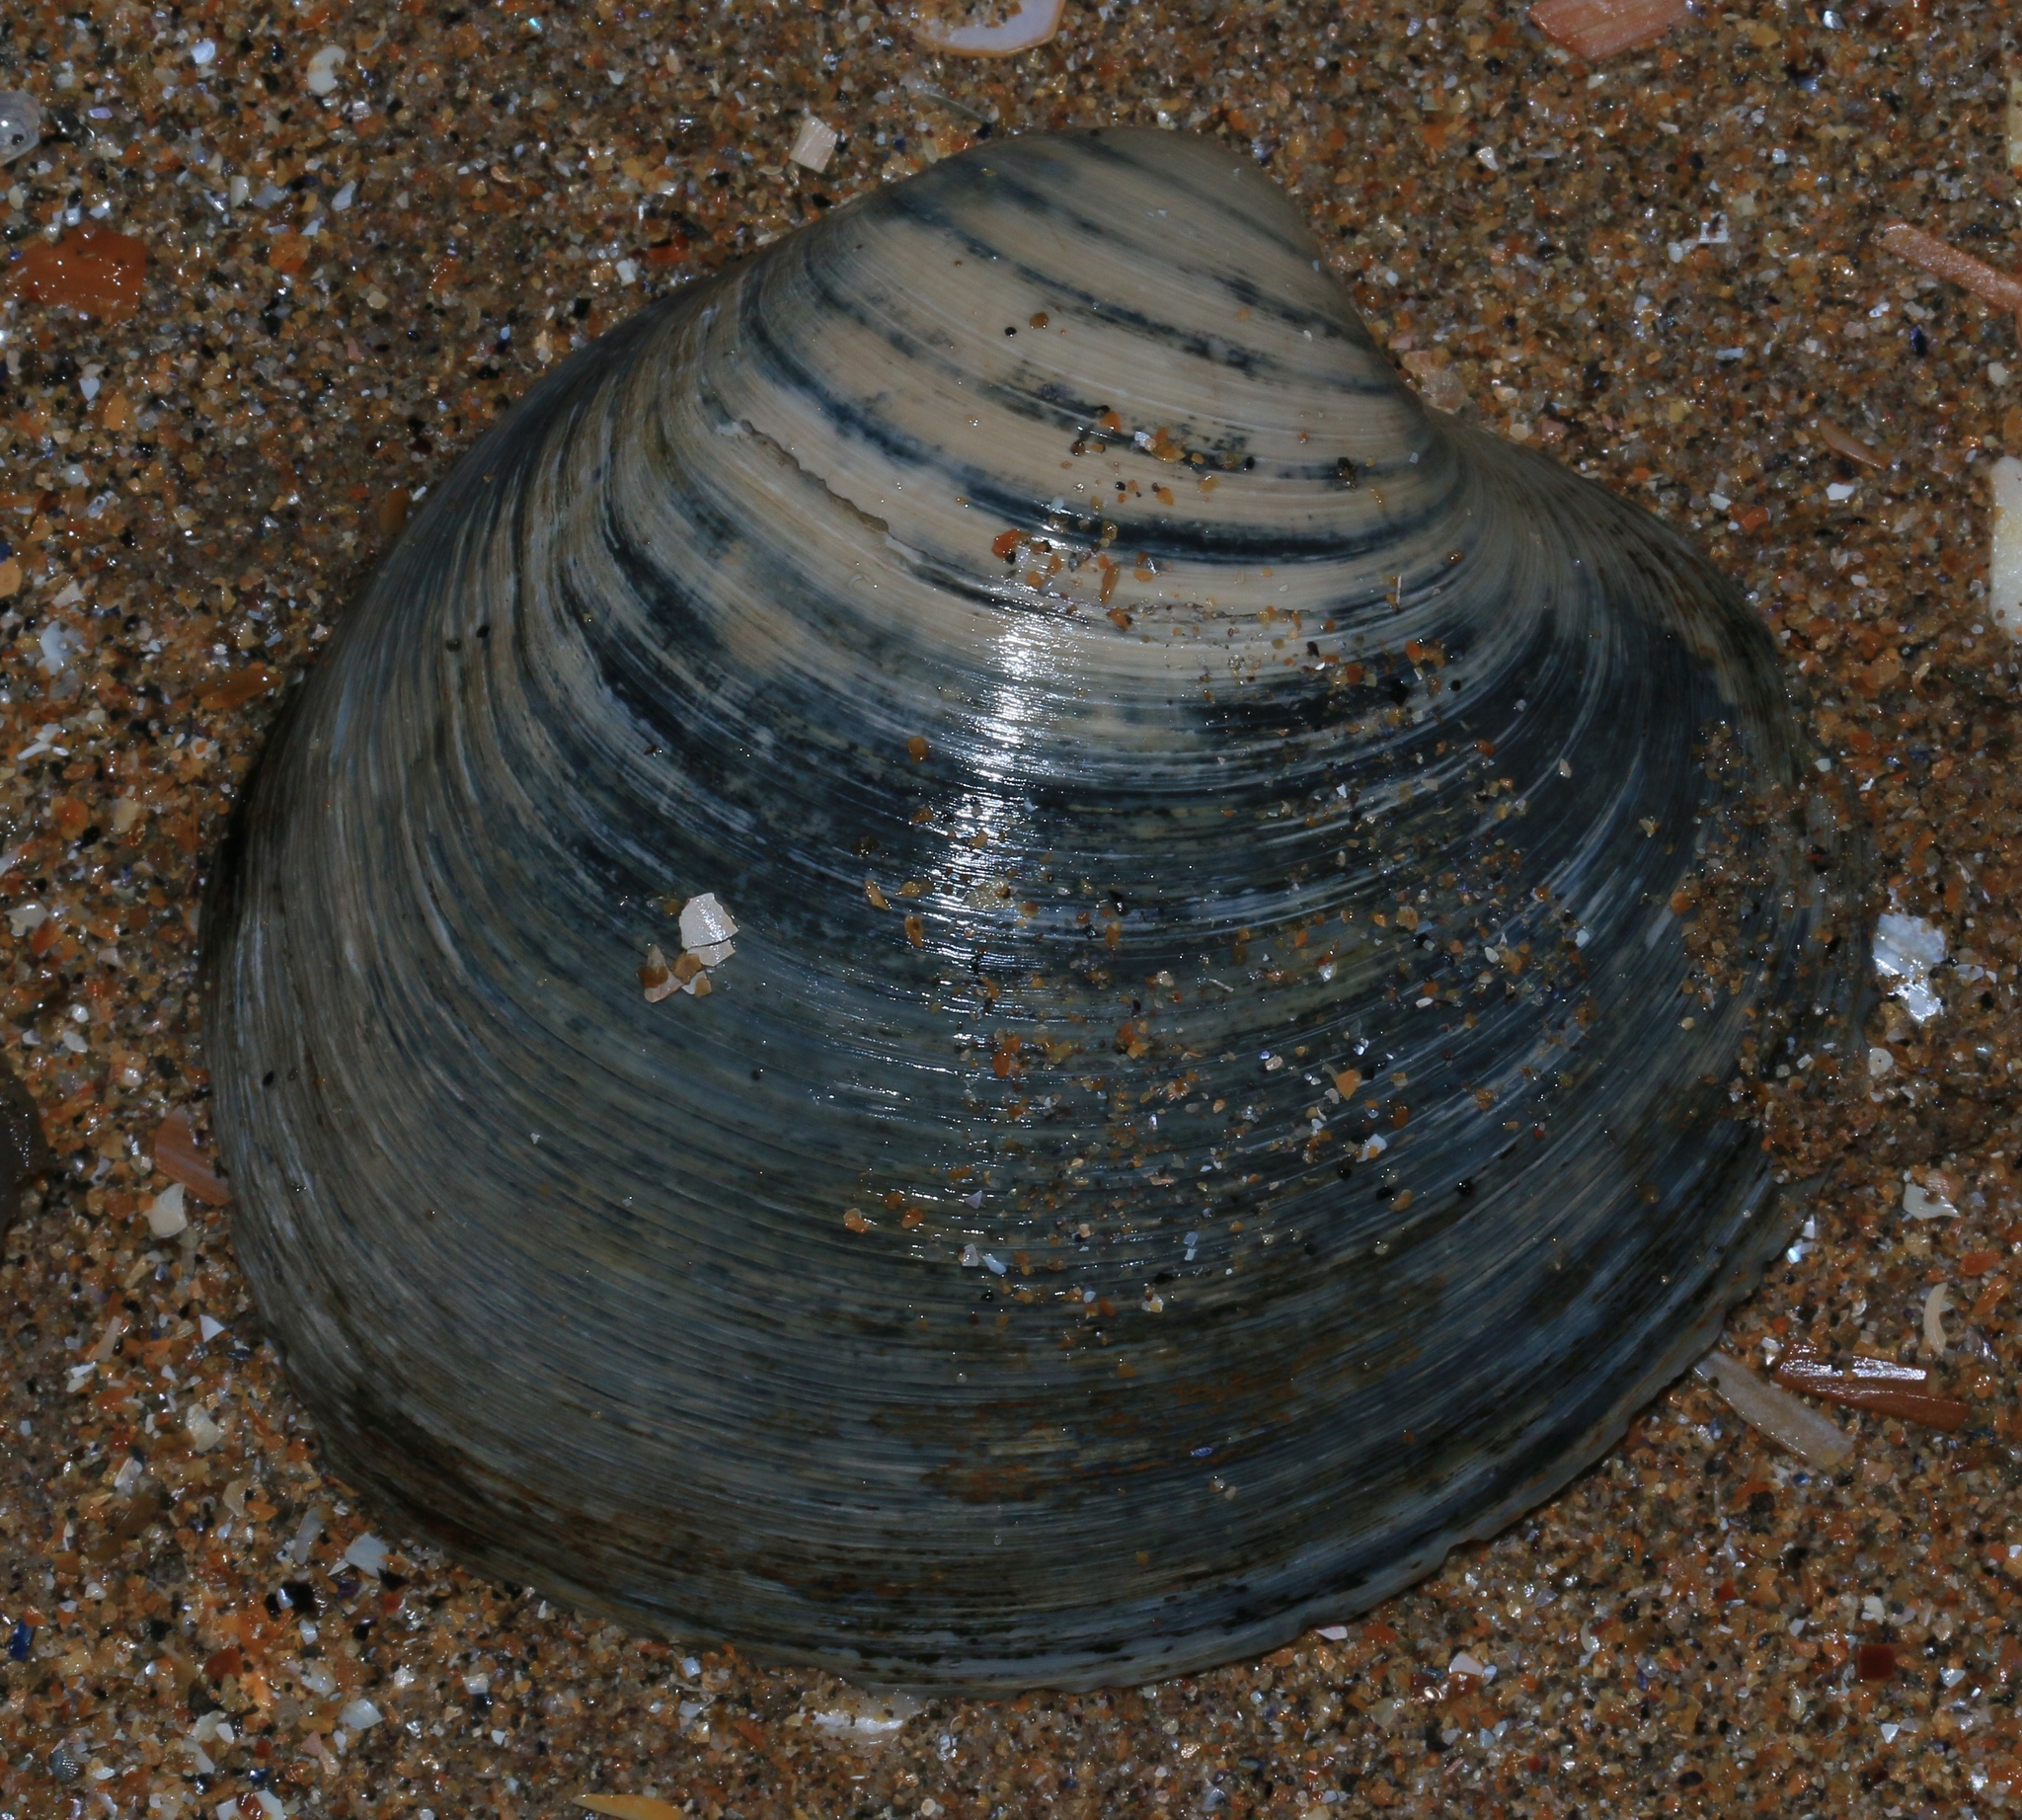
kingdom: Animalia
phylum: Mollusca
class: Bivalvia
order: Venerida
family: Arcticidae
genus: Arctica
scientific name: Arctica islandica
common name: Icelandic cyprine
